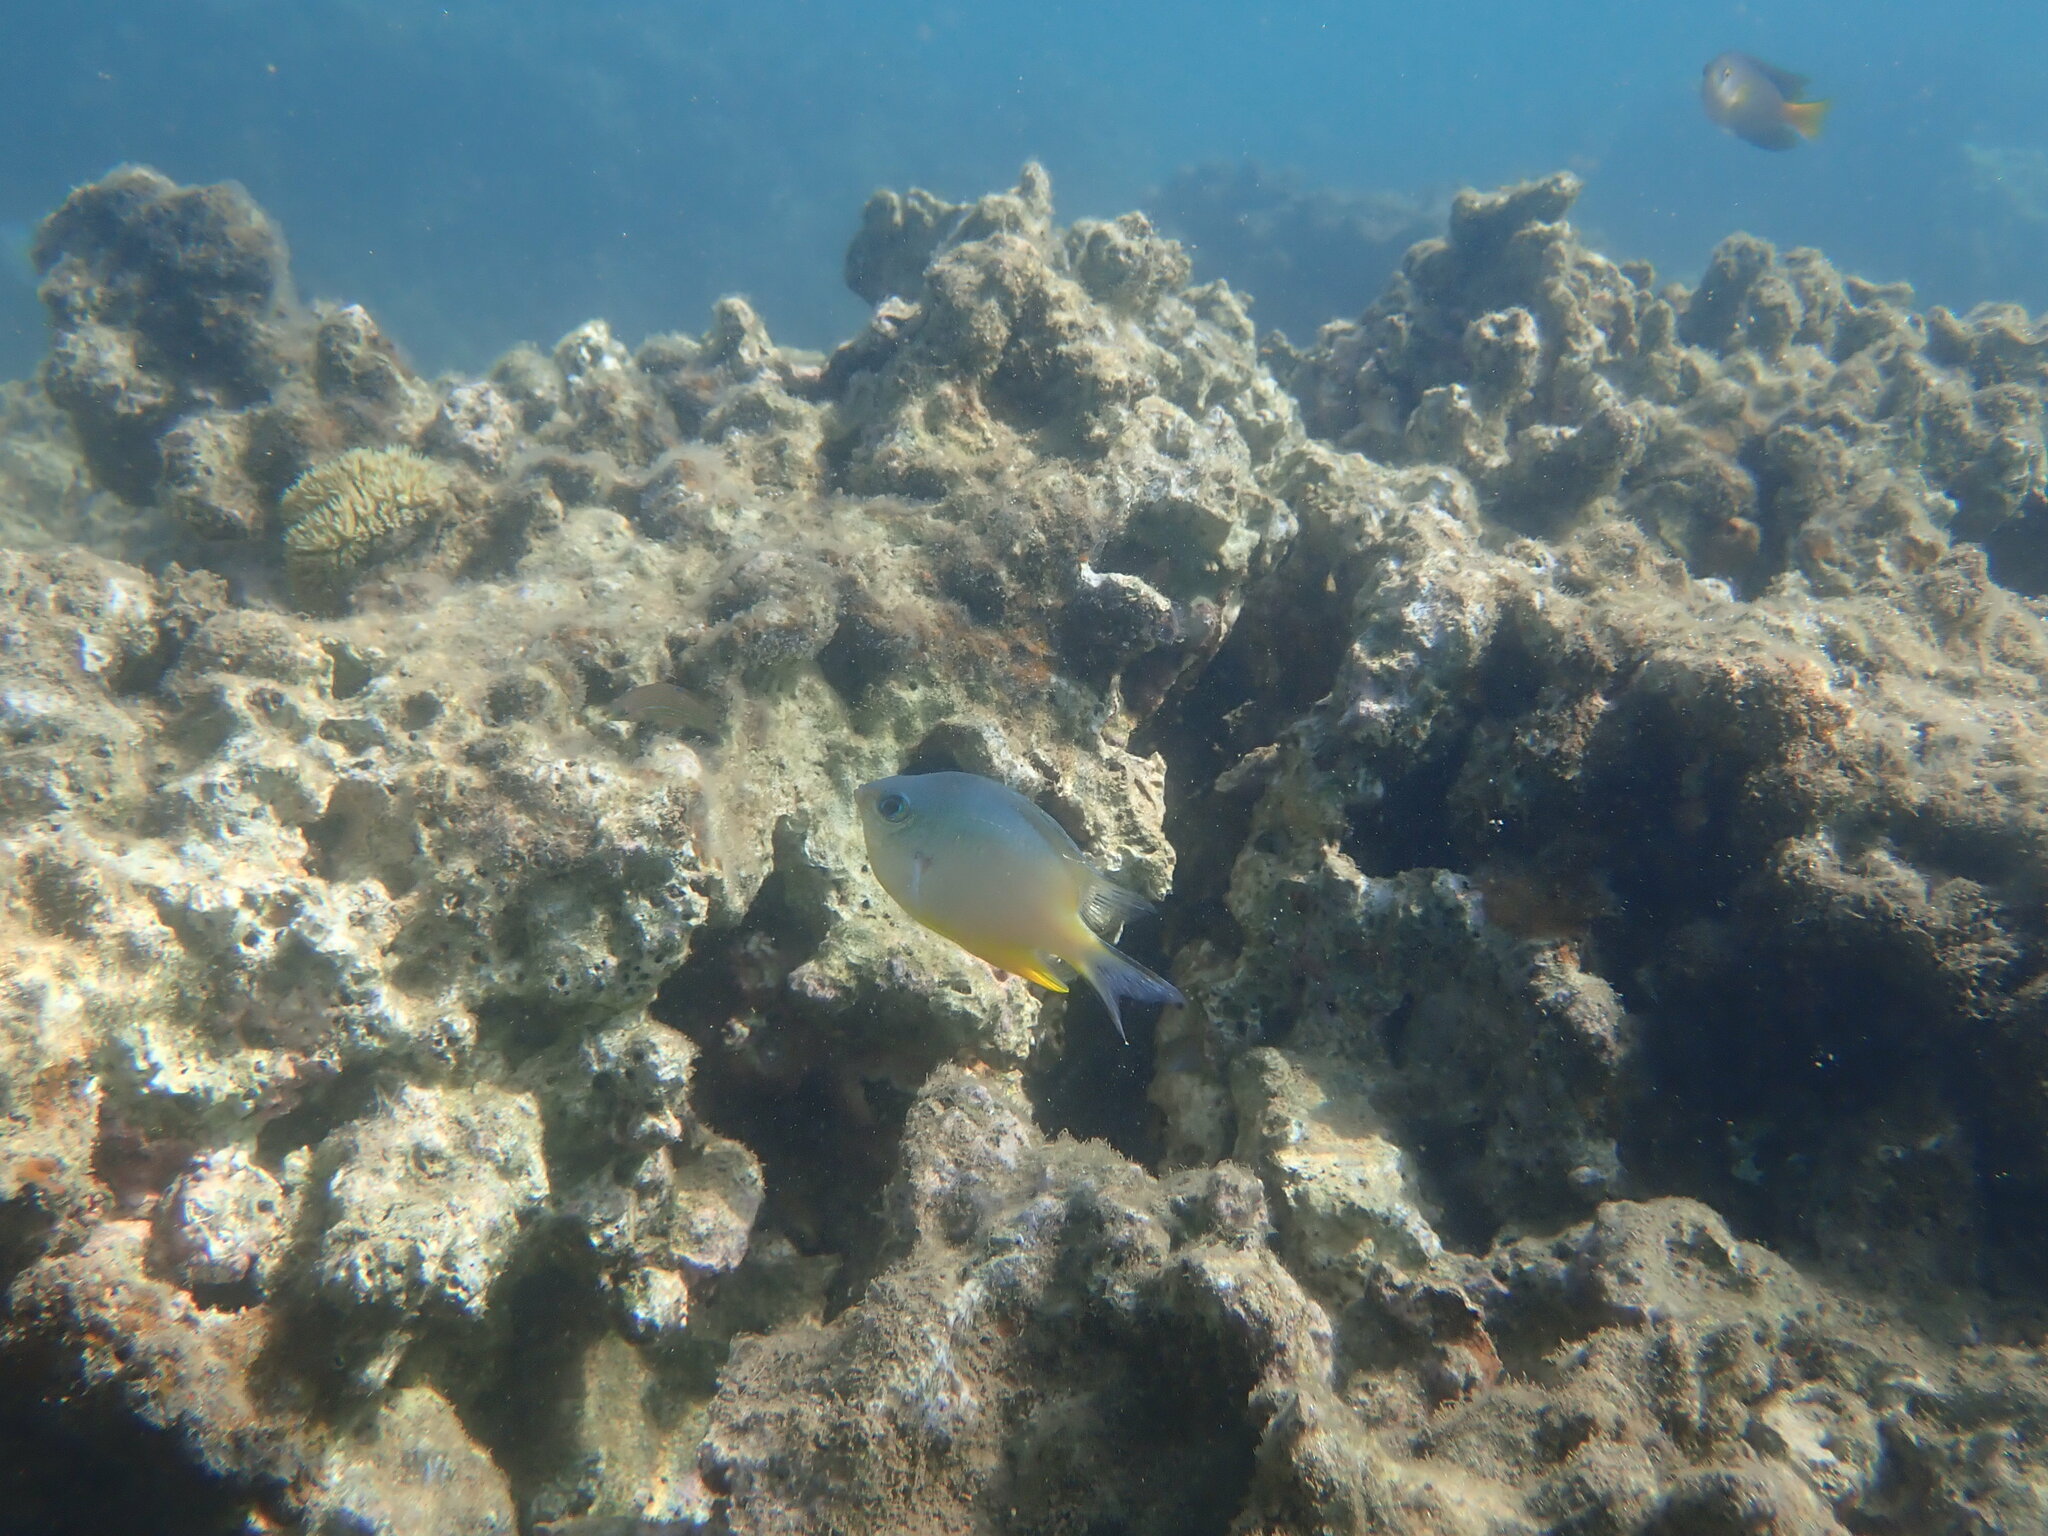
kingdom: Animalia
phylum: Chordata
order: Perciformes
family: Pomacentridae
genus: Amblyglyphidodon
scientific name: Amblyglyphidodon orbicularis
